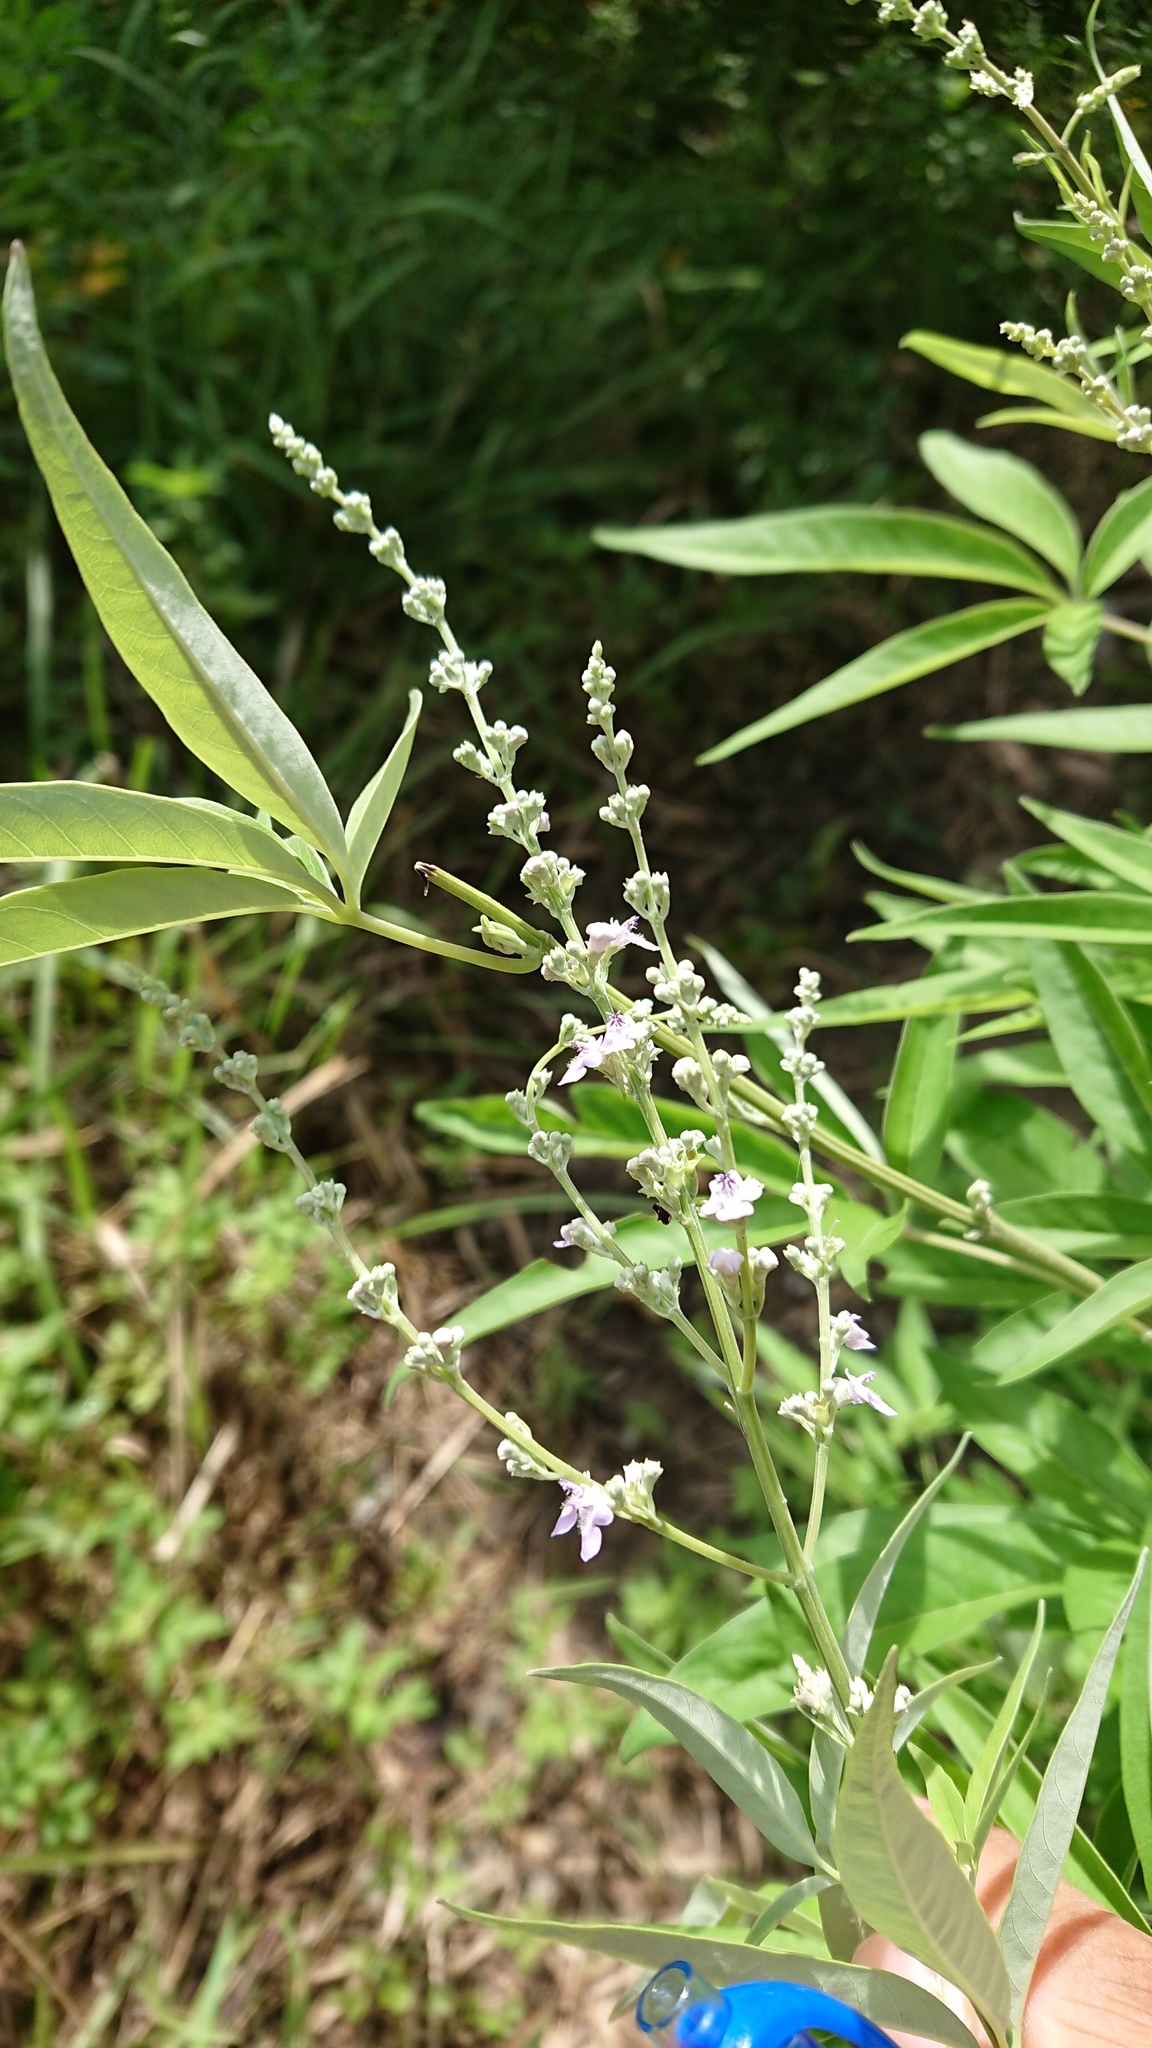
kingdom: Plantae
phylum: Tracheophyta
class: Magnoliopsida
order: Lamiales
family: Lamiaceae
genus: Vitex
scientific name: Vitex negundo
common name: Chinese chastetree
